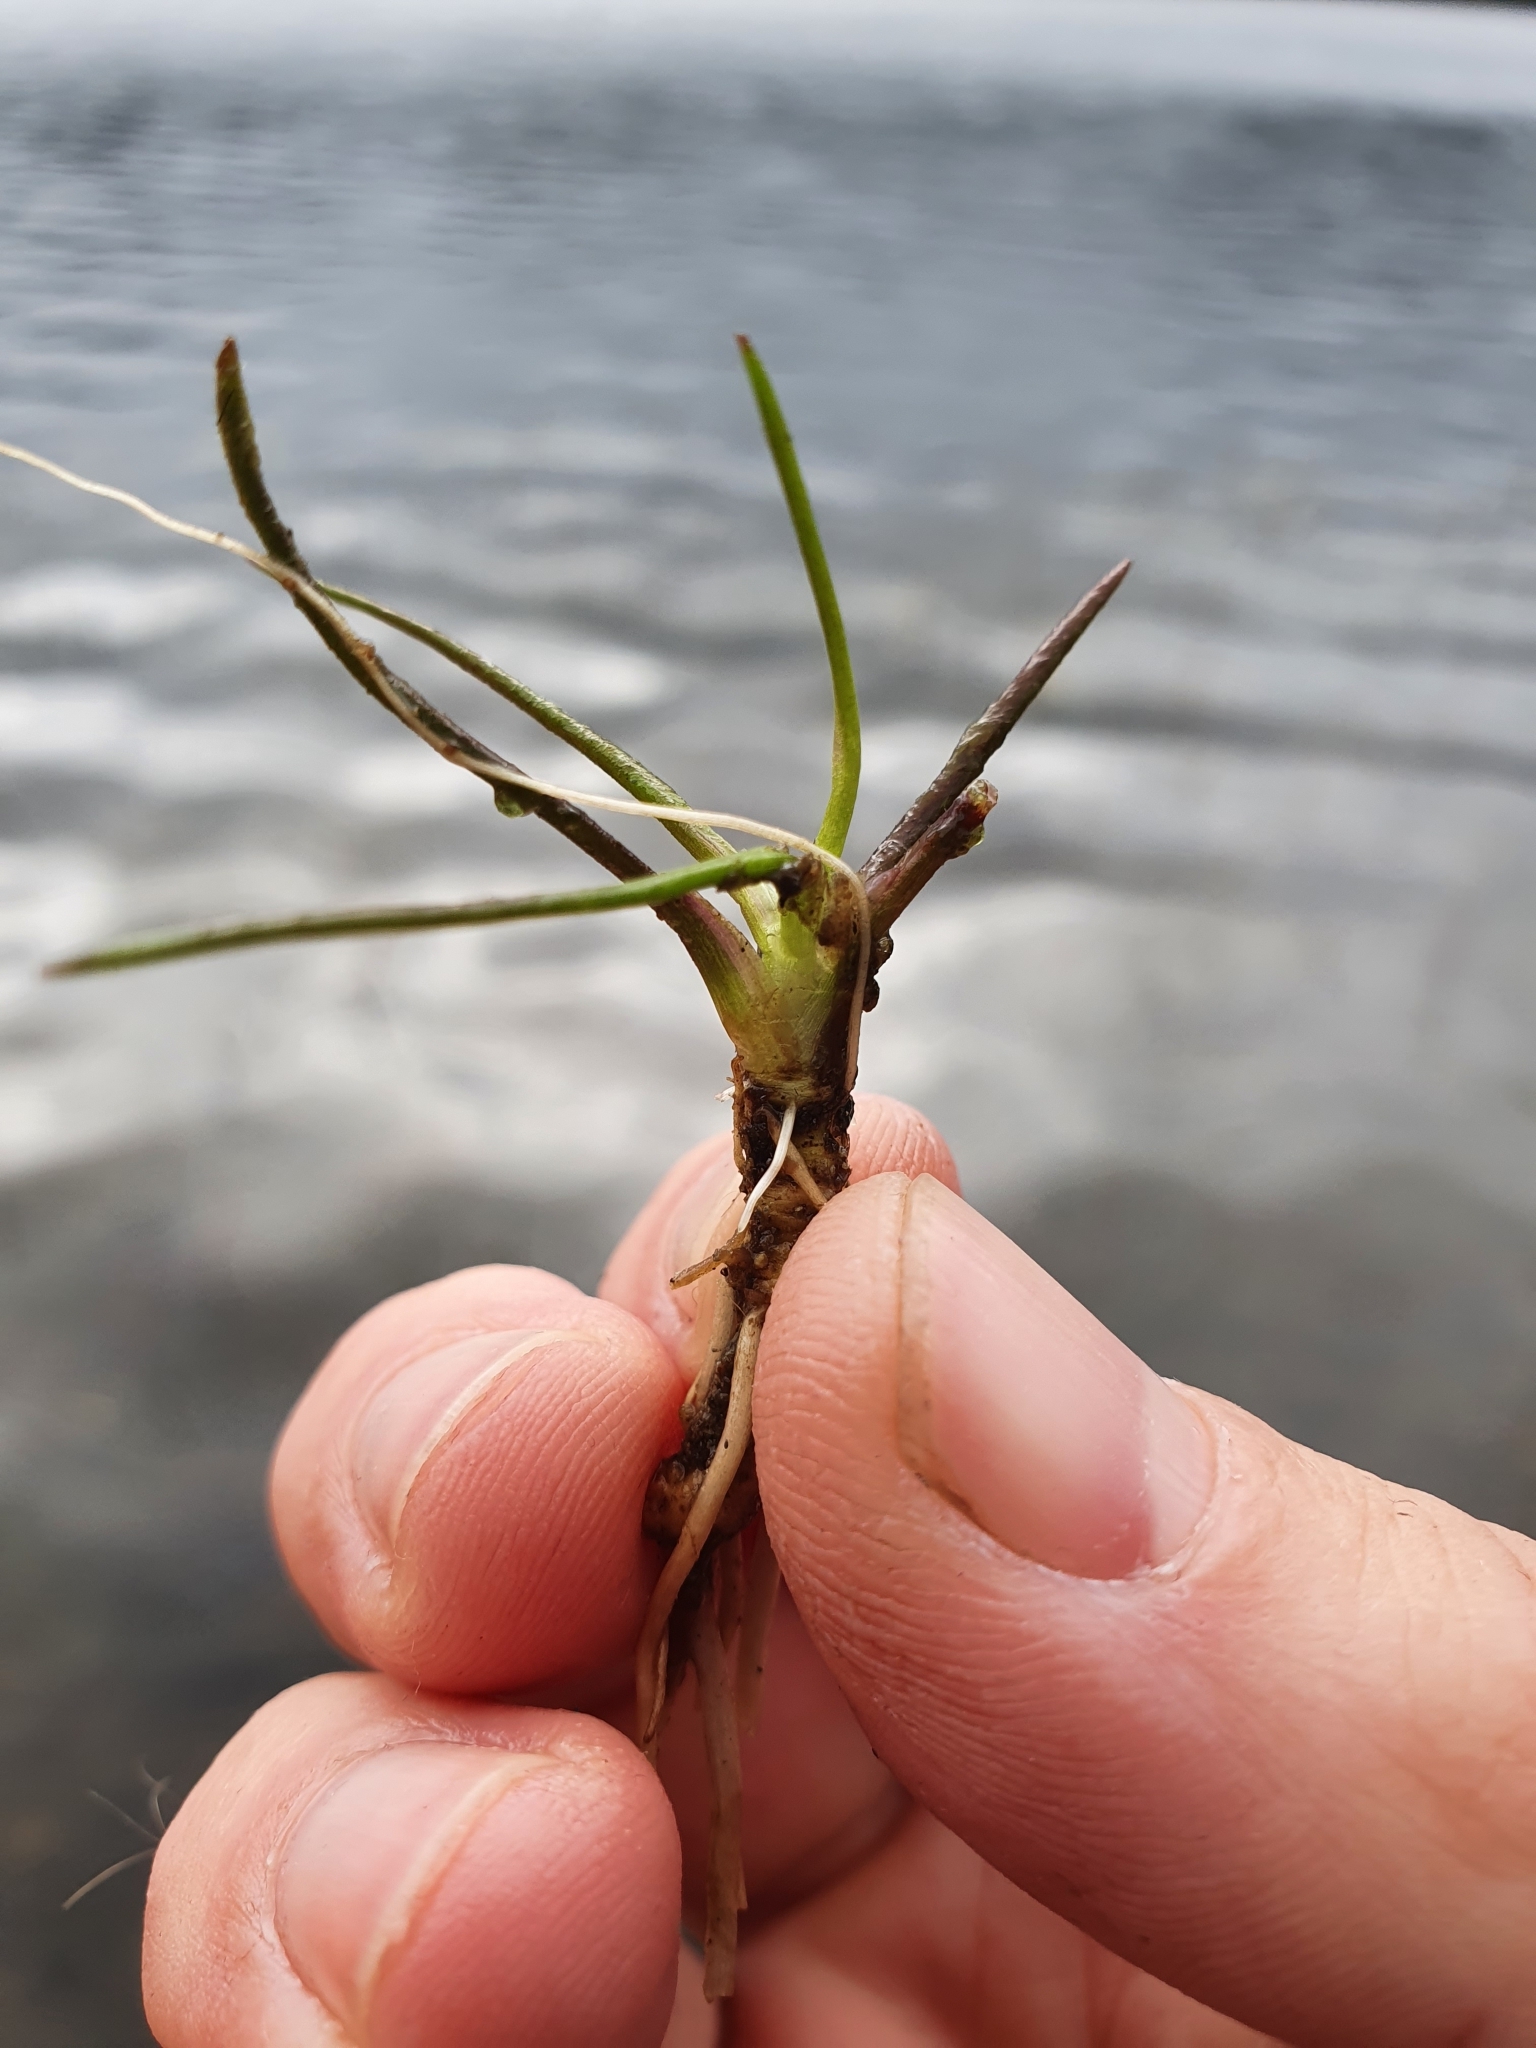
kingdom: Plantae
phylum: Tracheophyta
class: Magnoliopsida
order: Lamiales
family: Plantaginaceae
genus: Littorella
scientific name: Littorella uniflora
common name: Shoreweed
